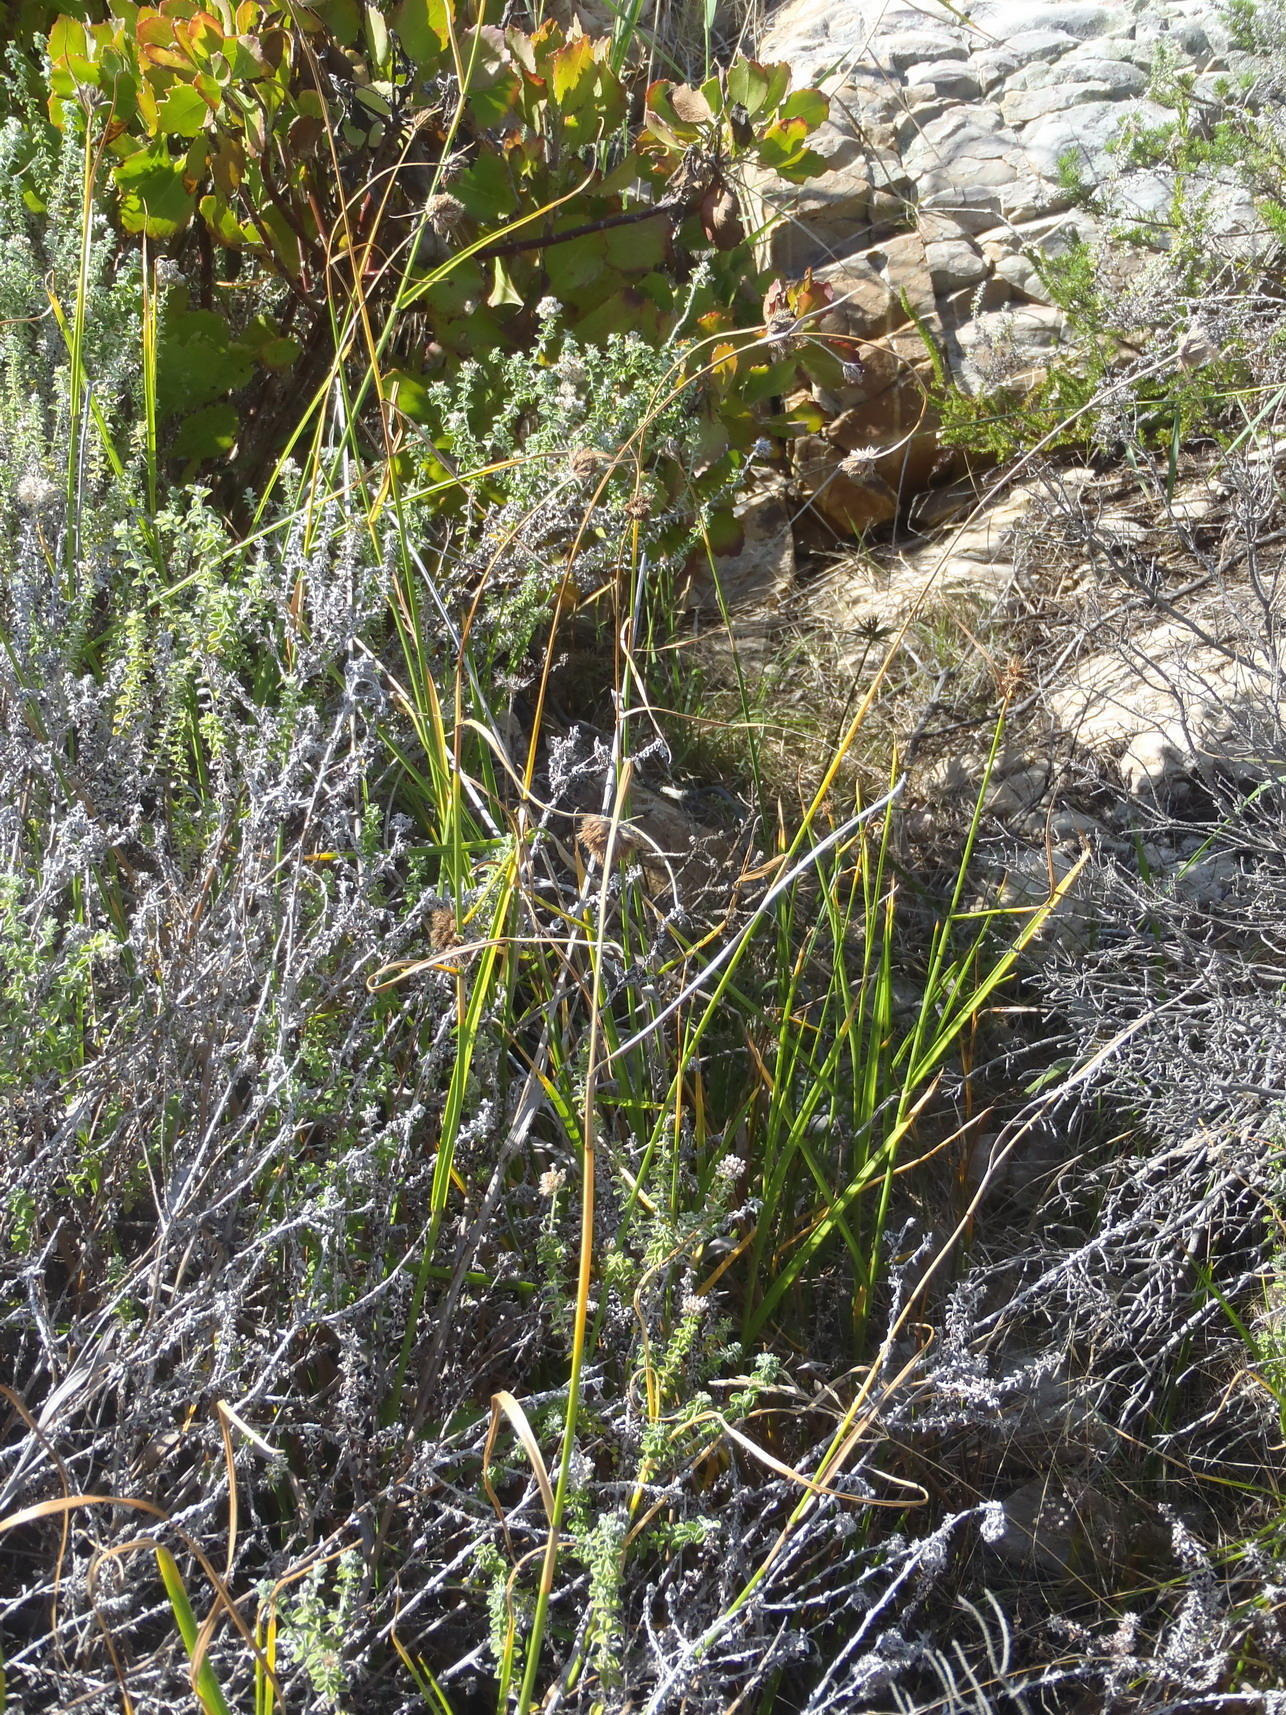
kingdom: Plantae
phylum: Tracheophyta
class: Liliopsida
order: Poales
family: Cyperaceae
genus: Fuirena
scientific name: Fuirena hirsuta
